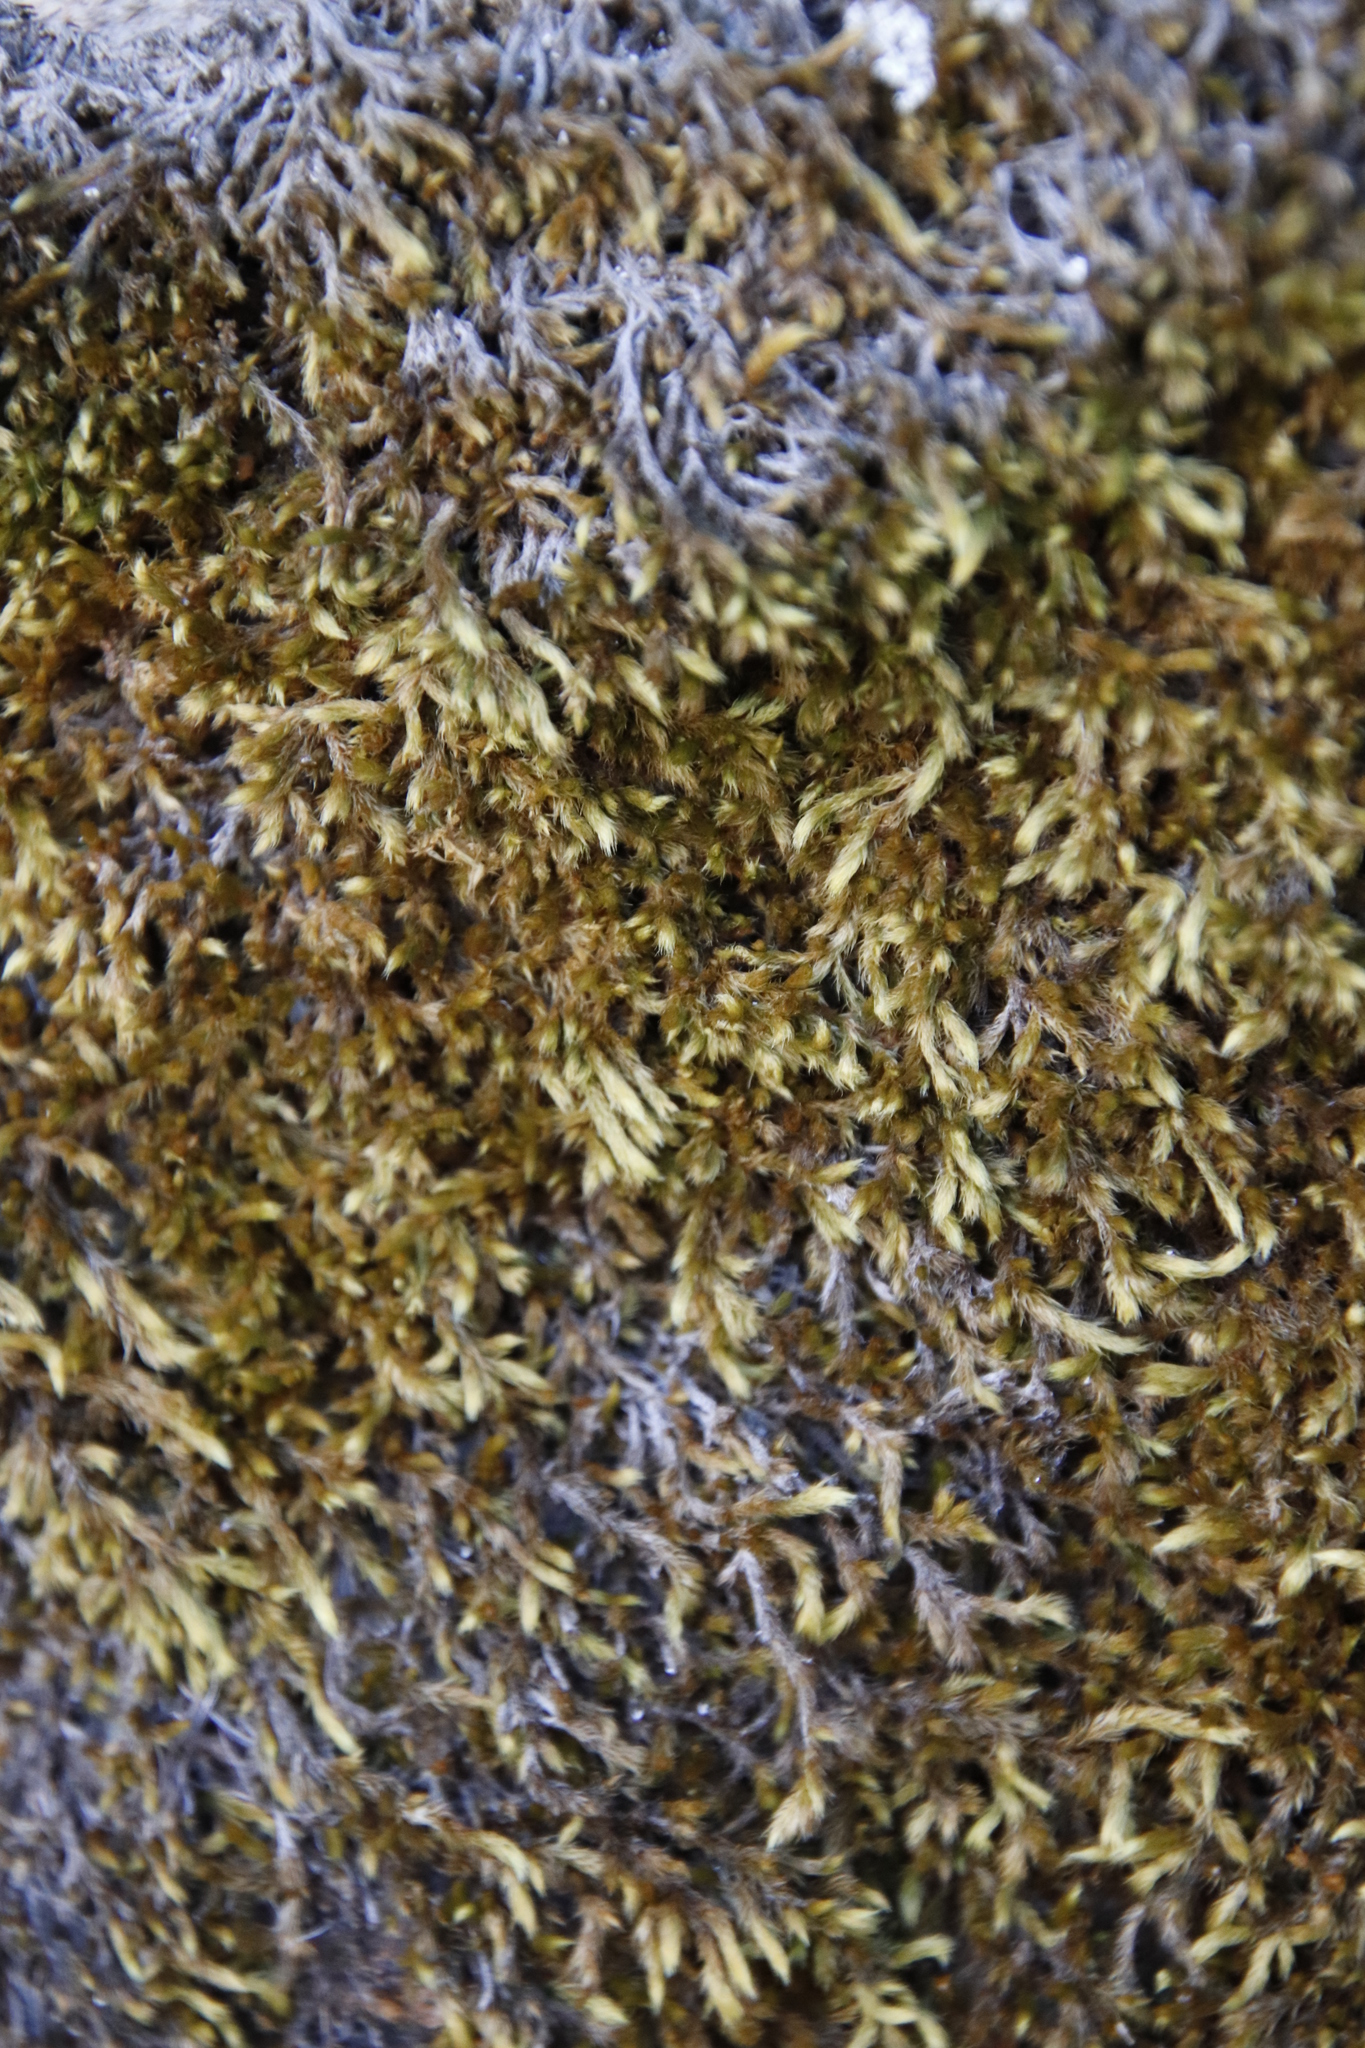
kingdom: Plantae
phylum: Bryophyta
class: Bryopsida
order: Bartramiales
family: Bartramiaceae
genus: Breutelia
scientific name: Breutelia substricta
